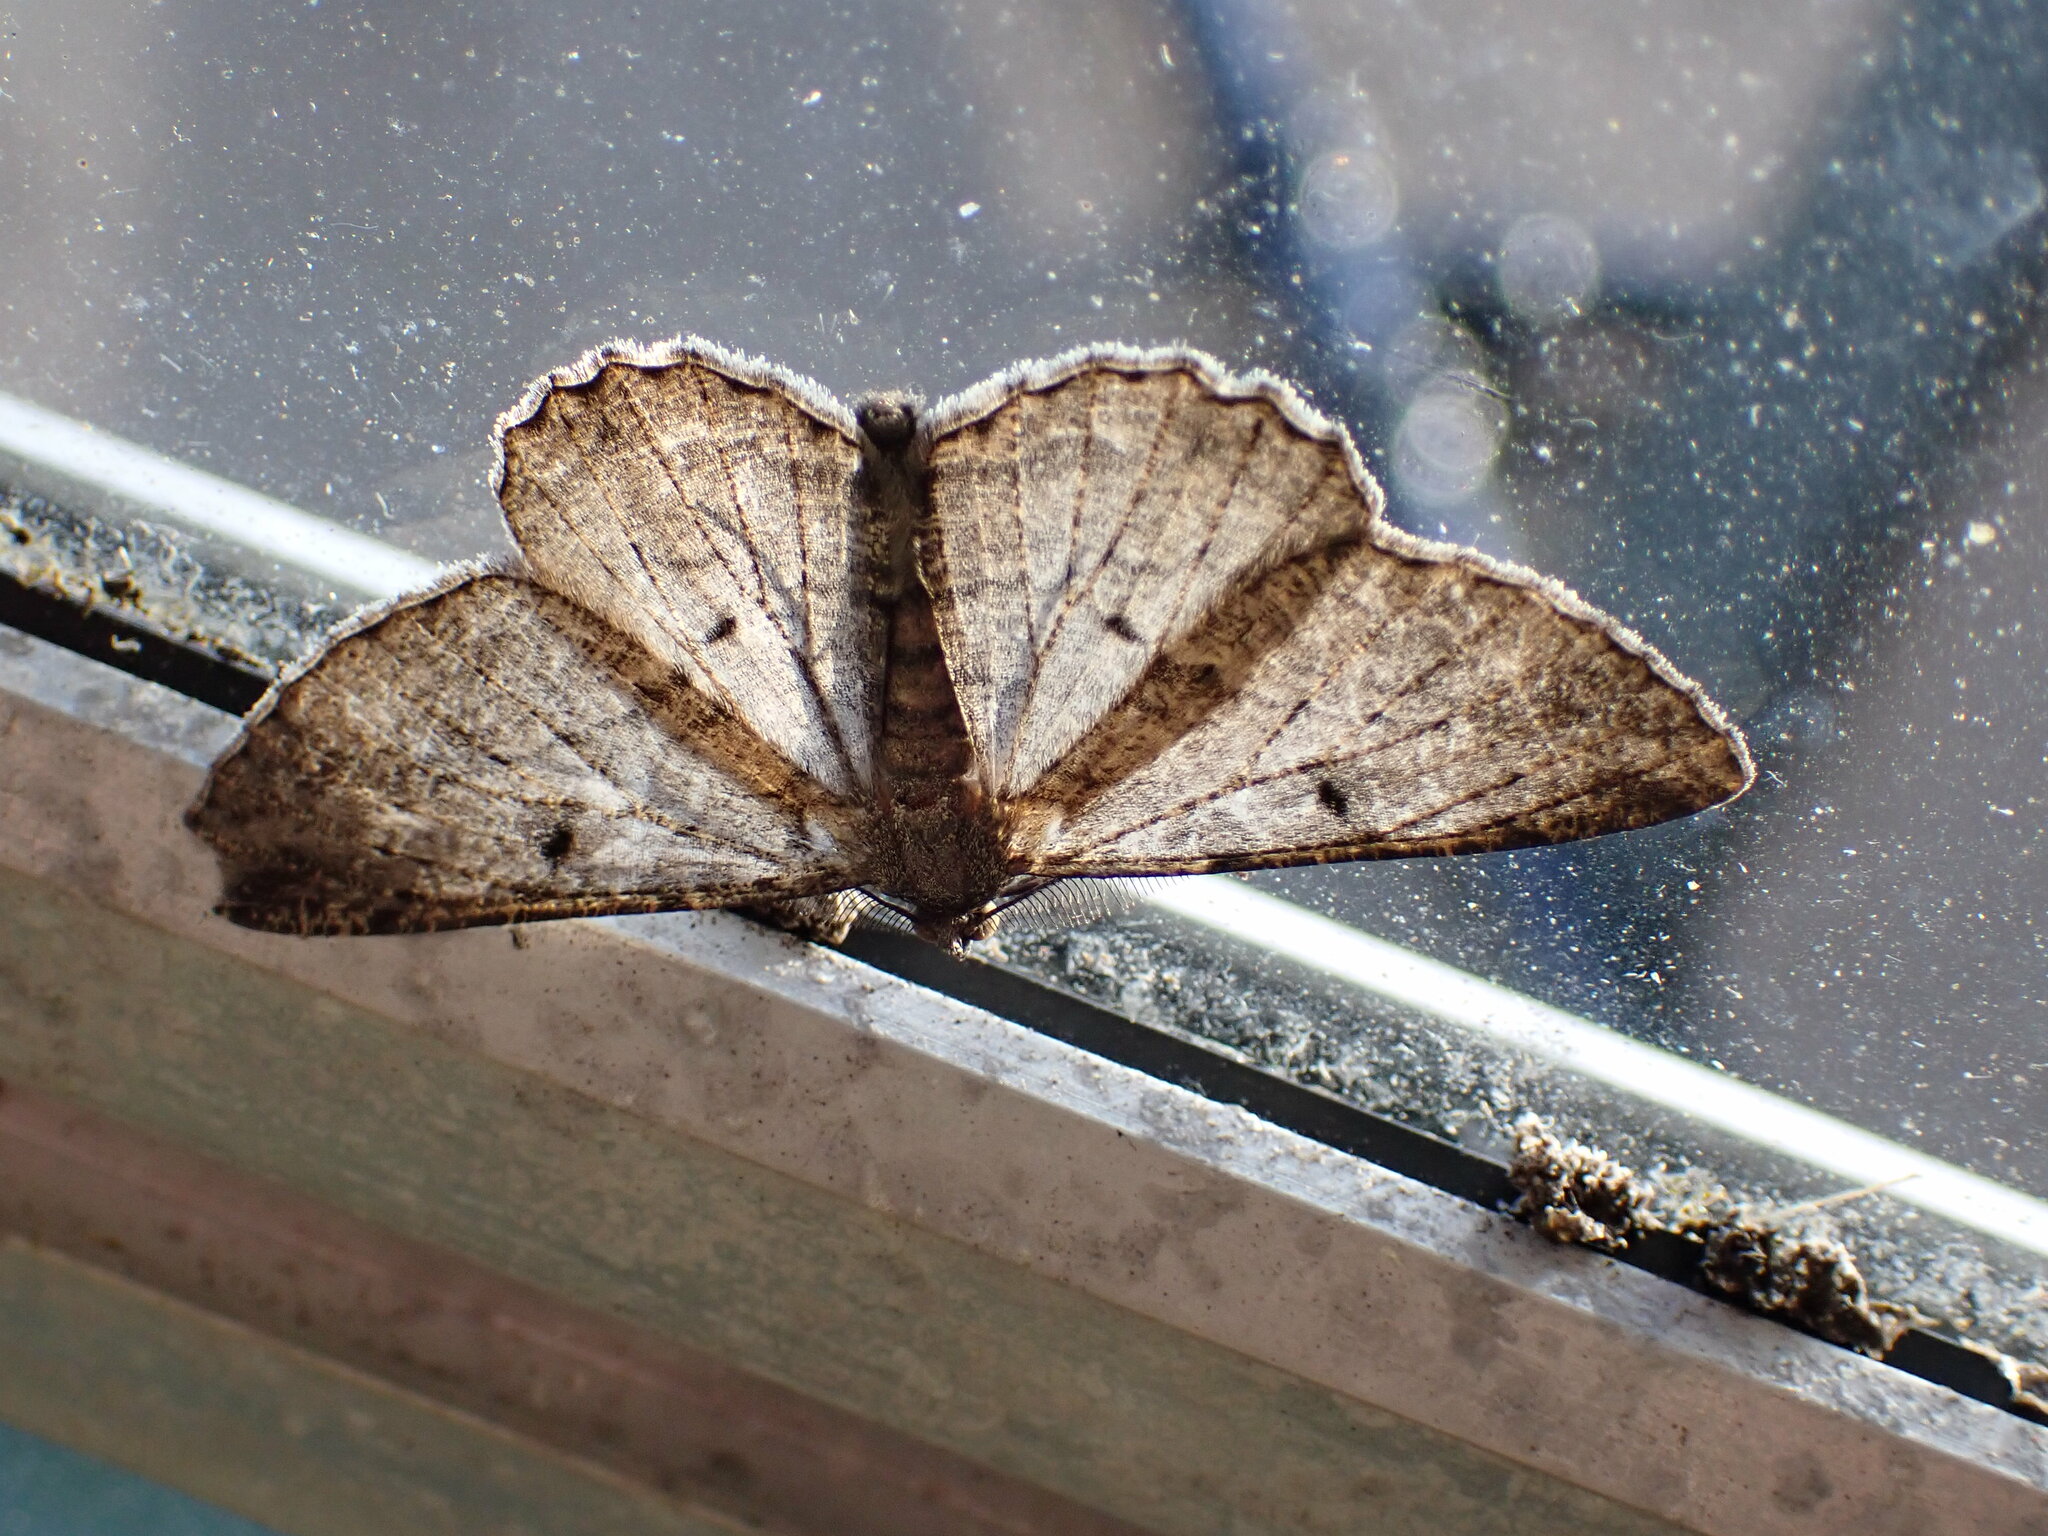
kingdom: Animalia
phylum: Arthropoda
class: Insecta
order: Lepidoptera
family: Geometridae
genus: Peribatodes
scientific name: Peribatodes rhomboidaria
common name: Willow beauty
